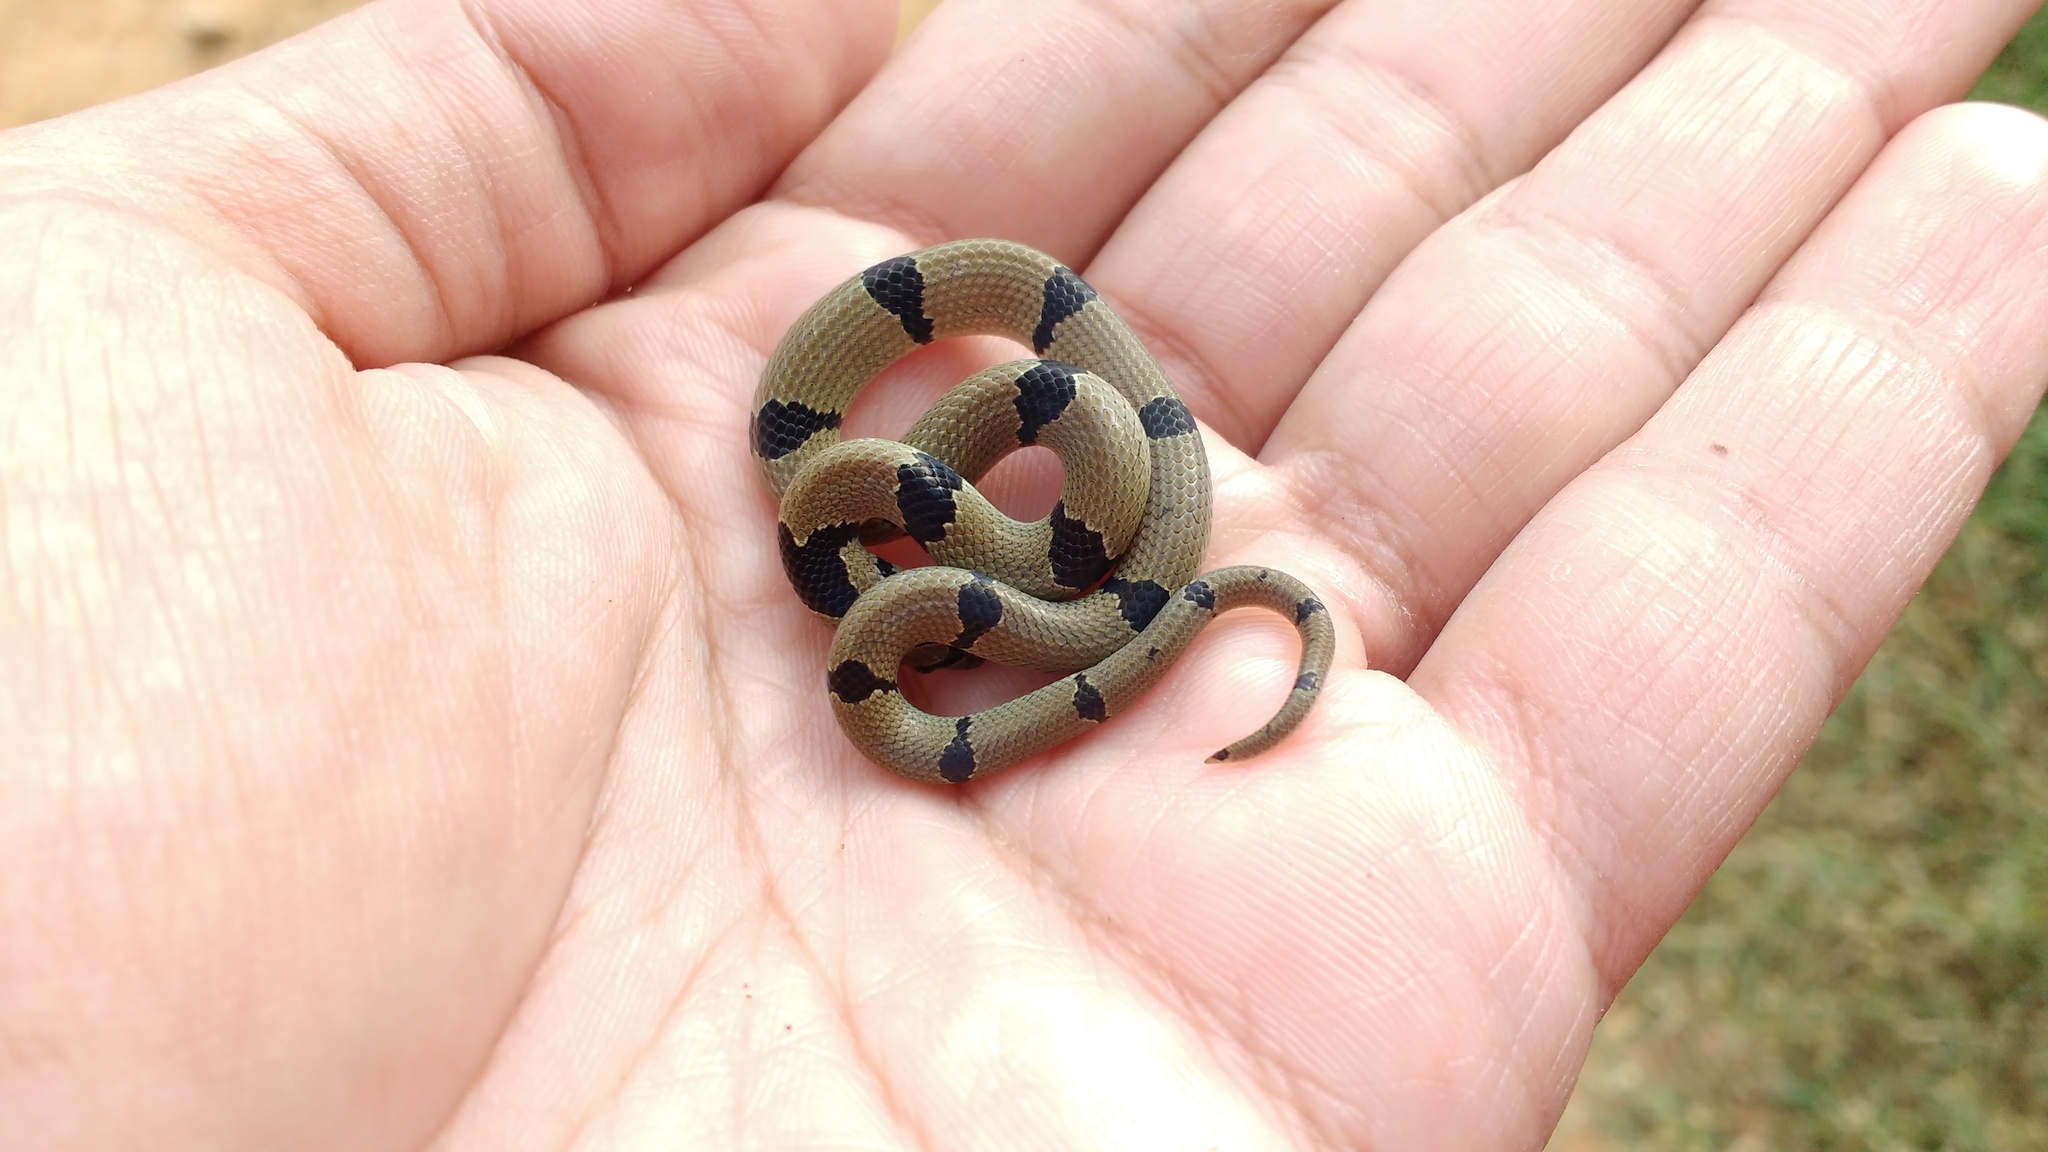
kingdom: Animalia
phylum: Chordata
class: Squamata
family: Colubridae
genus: Oligodon
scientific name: Oligodon arnensis
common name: Banded kukri
